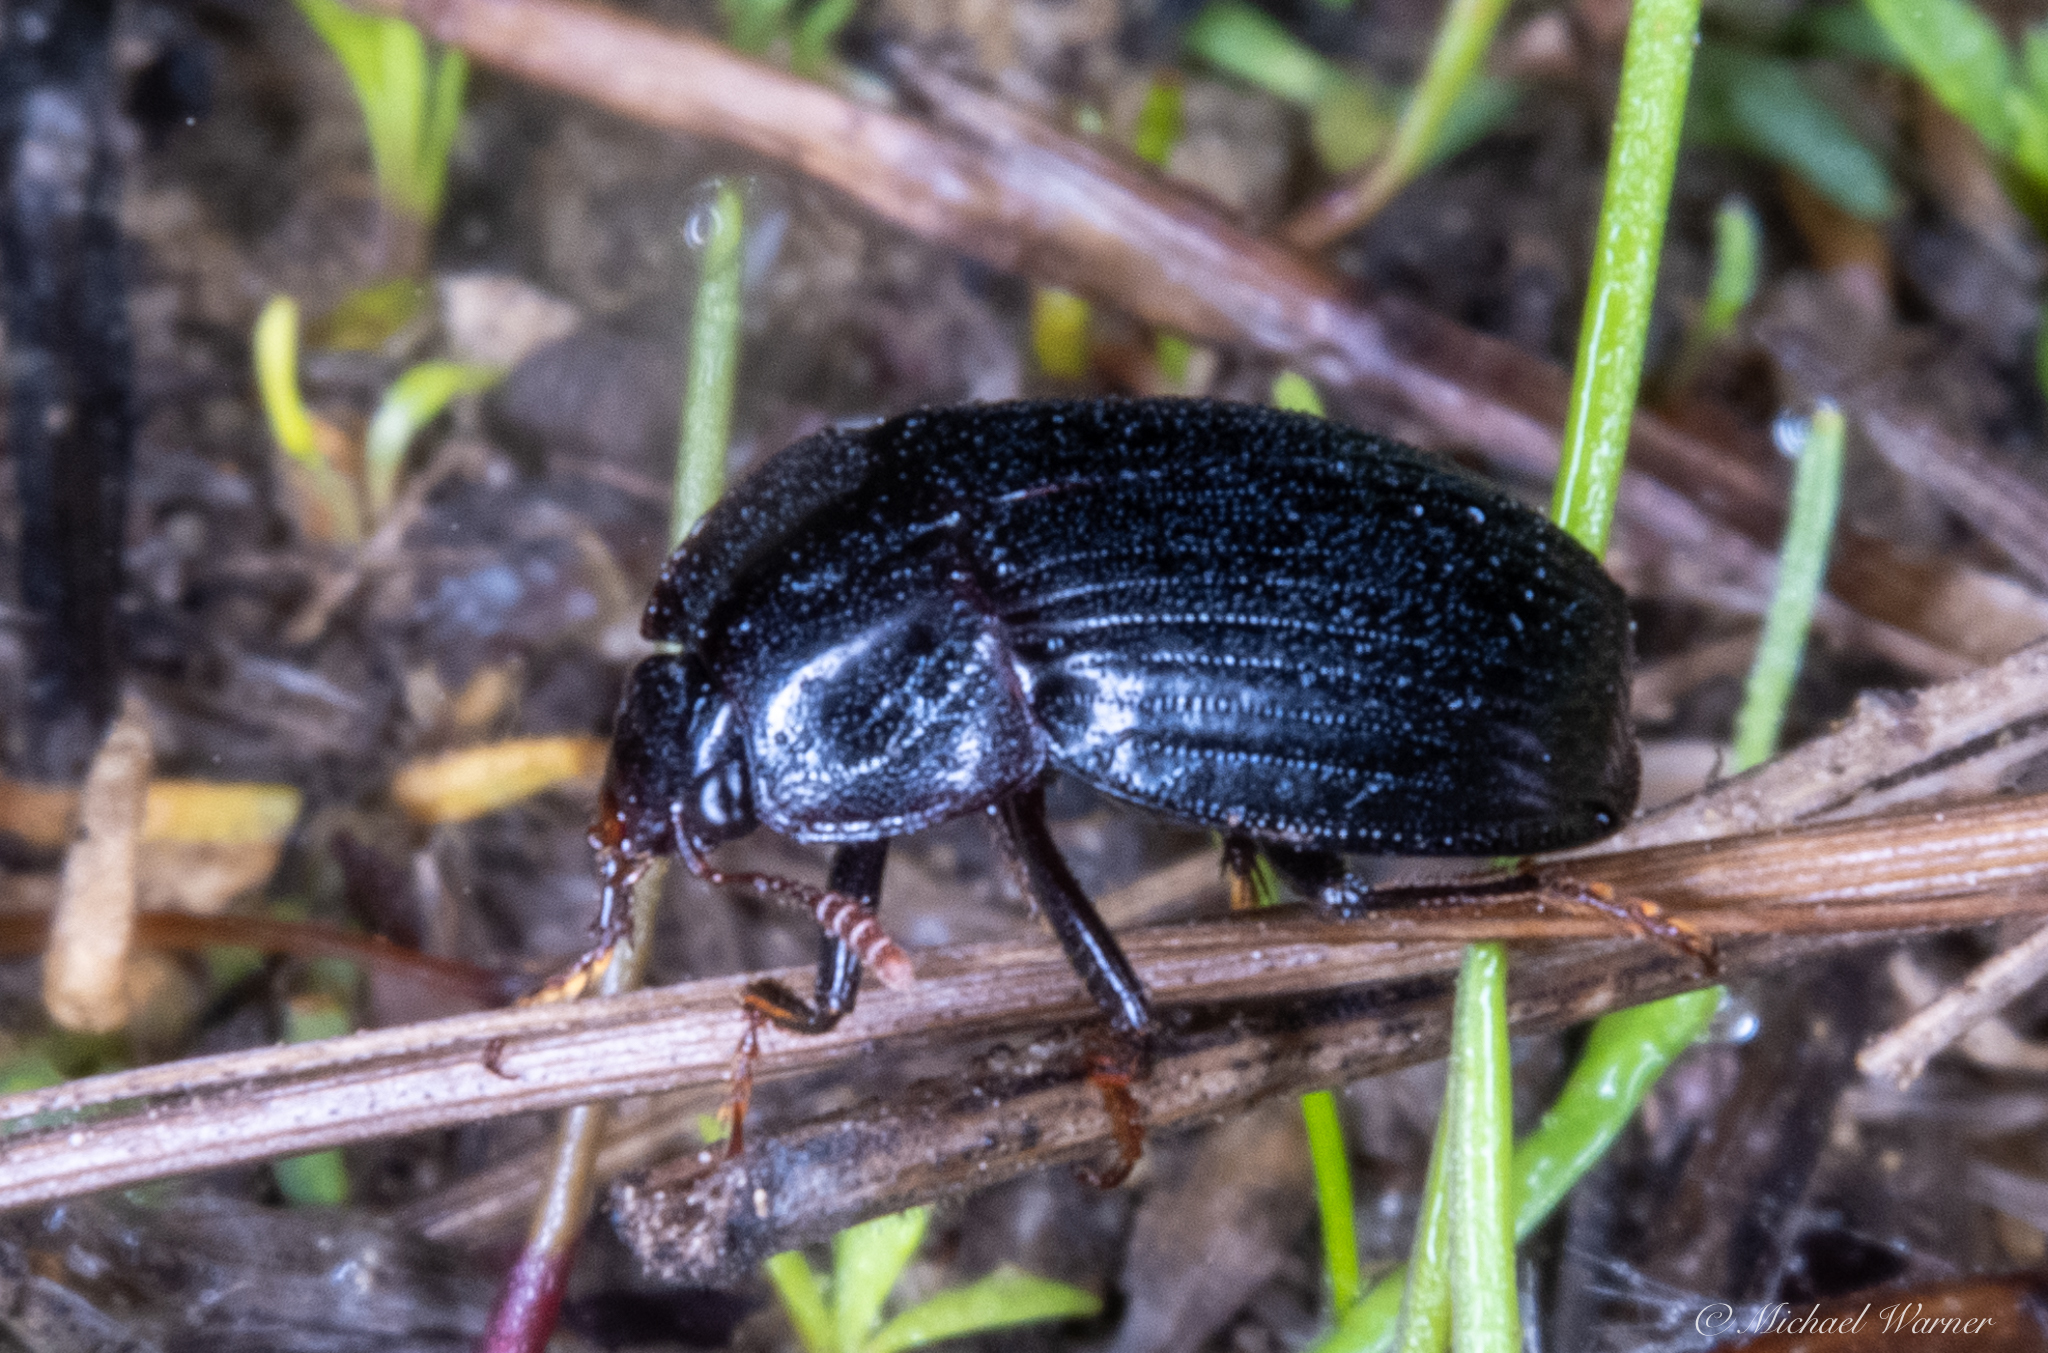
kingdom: Animalia
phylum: Arthropoda
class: Insecta
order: Coleoptera
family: Agyrtidae
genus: Necrophilus
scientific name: Necrophilus hydrophiloides
